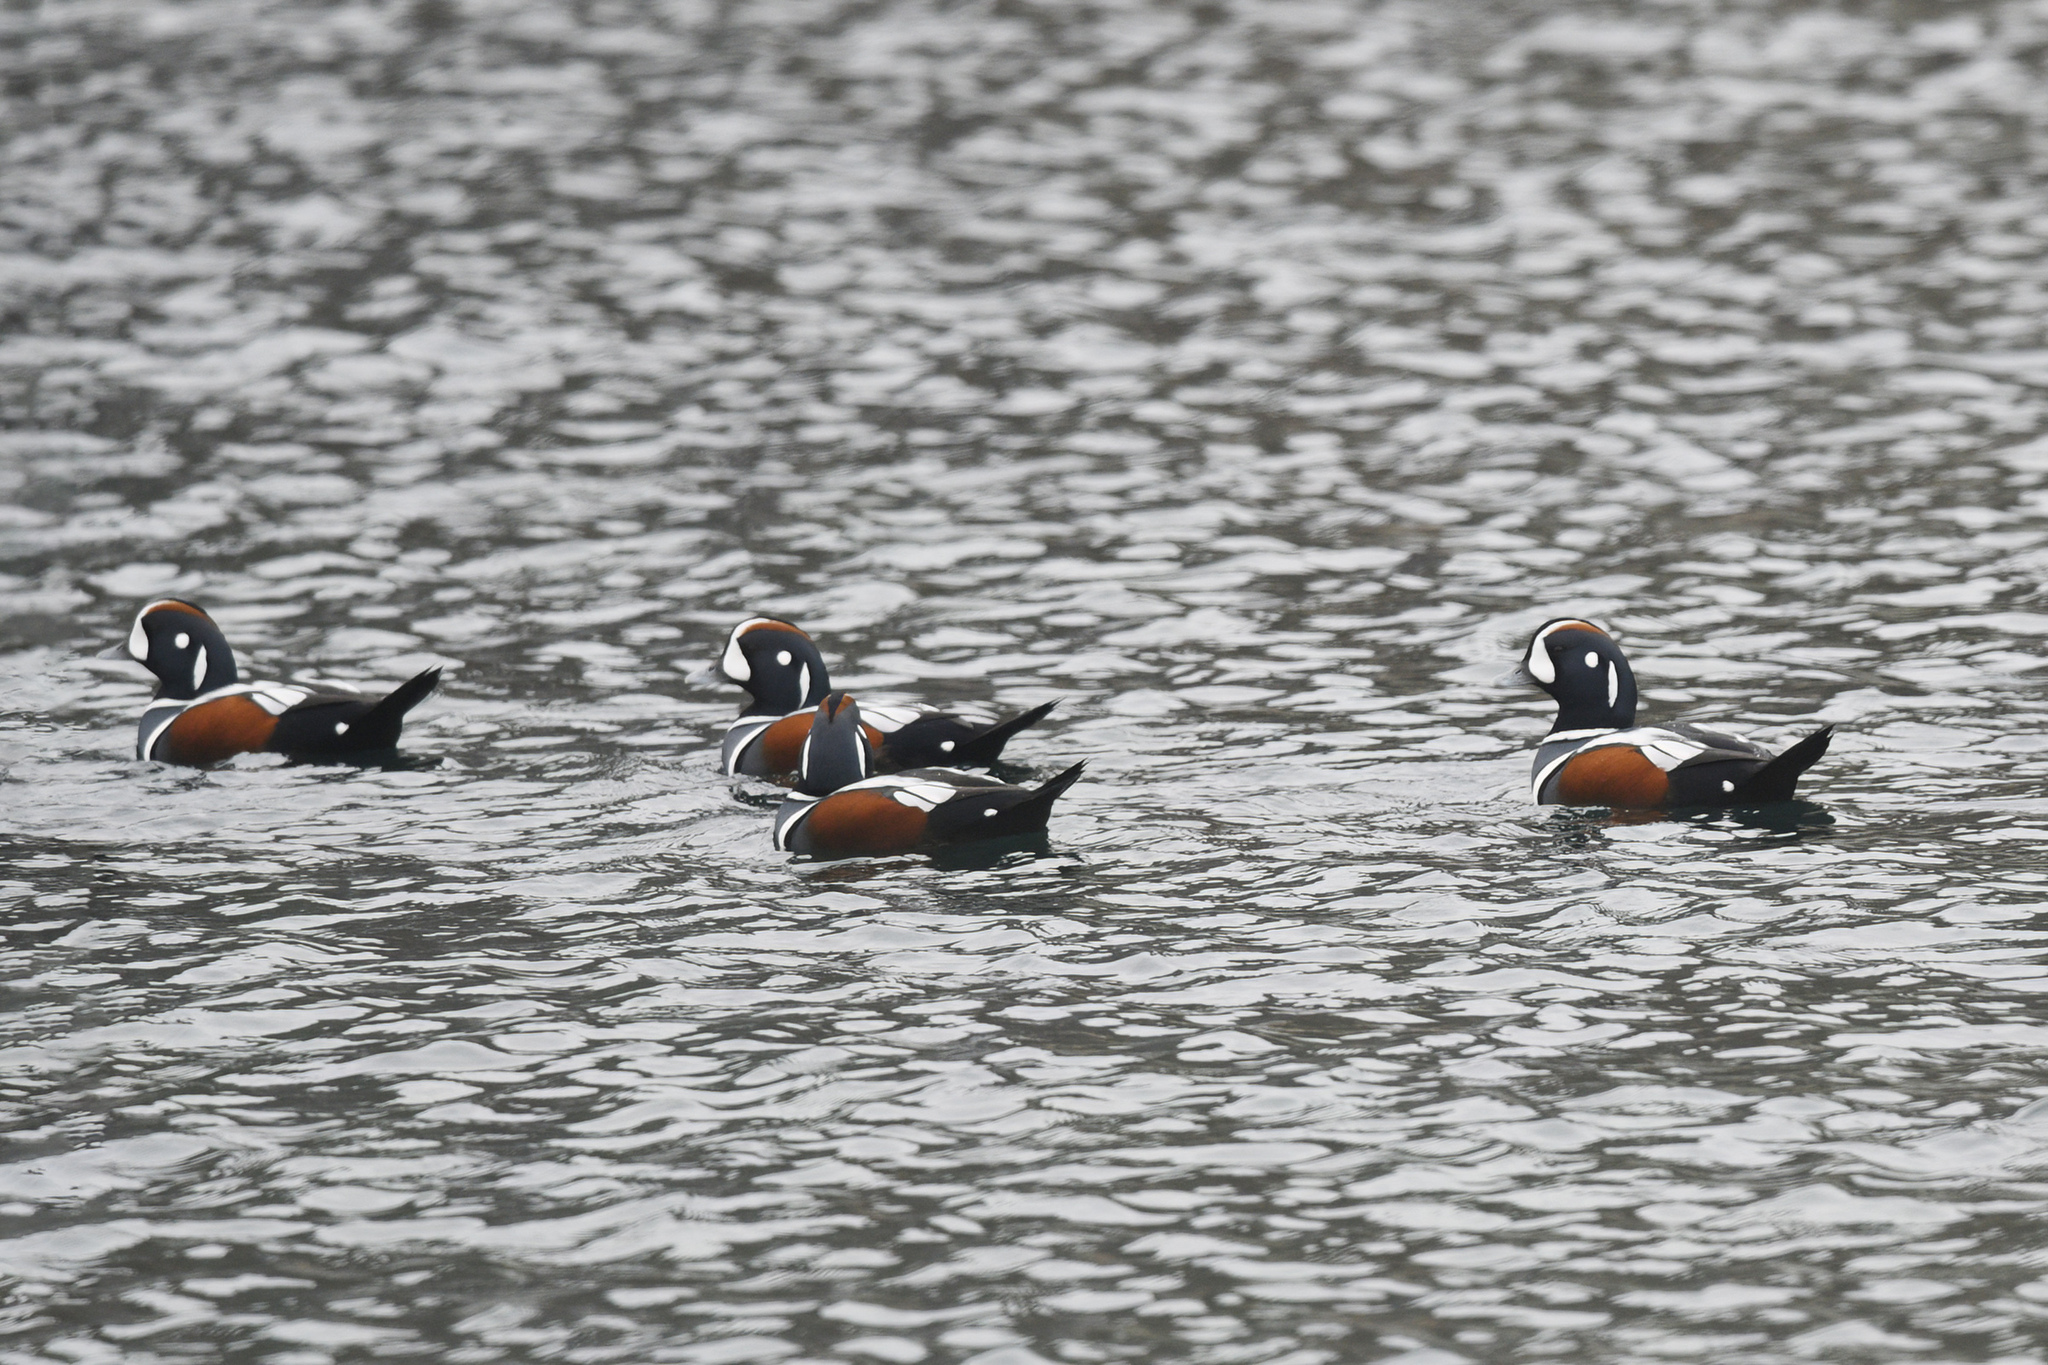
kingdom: Animalia
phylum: Chordata
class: Aves
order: Anseriformes
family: Anatidae
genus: Histrionicus
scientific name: Histrionicus histrionicus
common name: Harlequin duck
